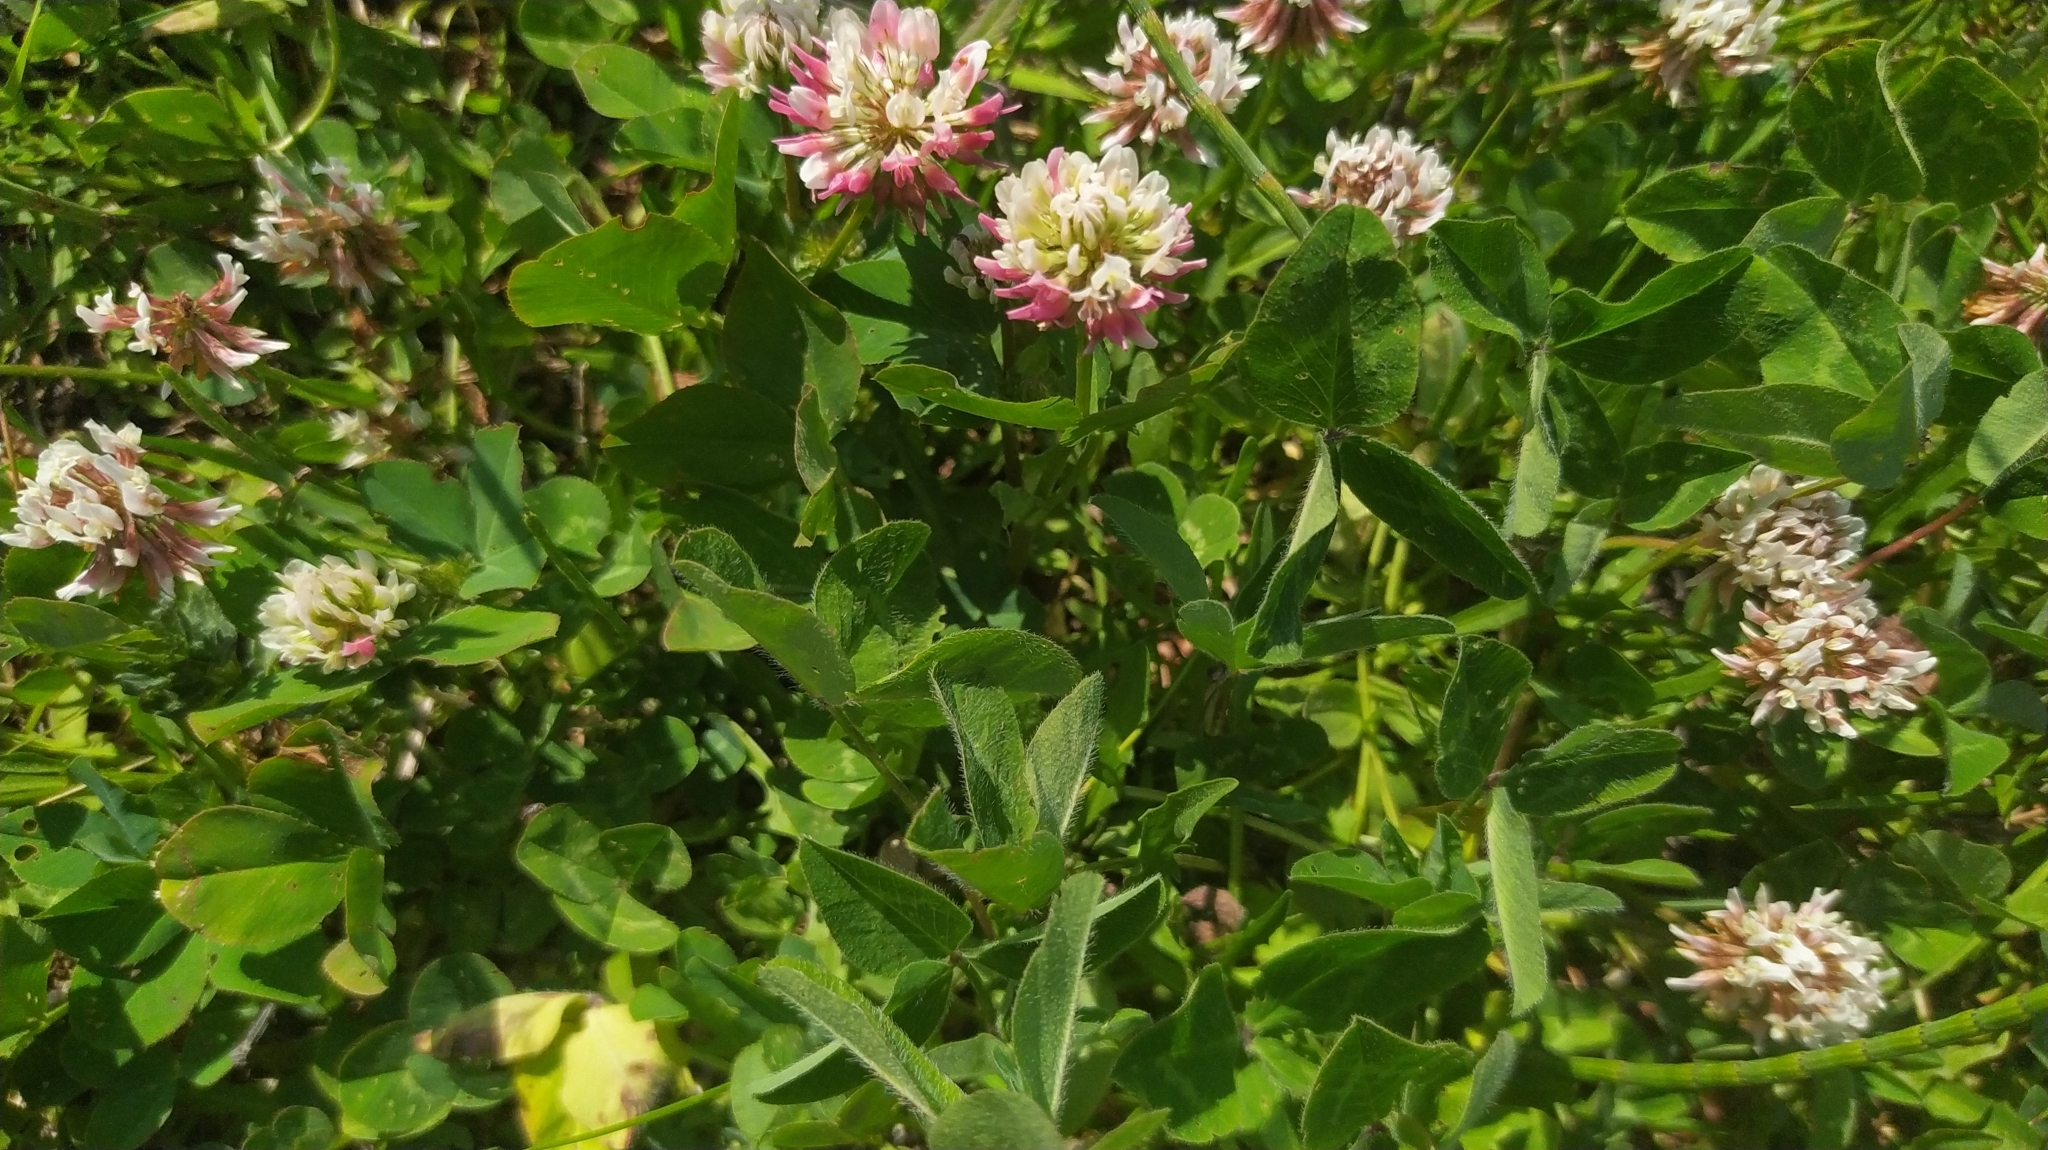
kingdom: Plantae
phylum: Tracheophyta
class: Magnoliopsida
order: Fabales
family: Fabaceae
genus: Trifolium
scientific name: Trifolium hybridum
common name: Alsike clover
